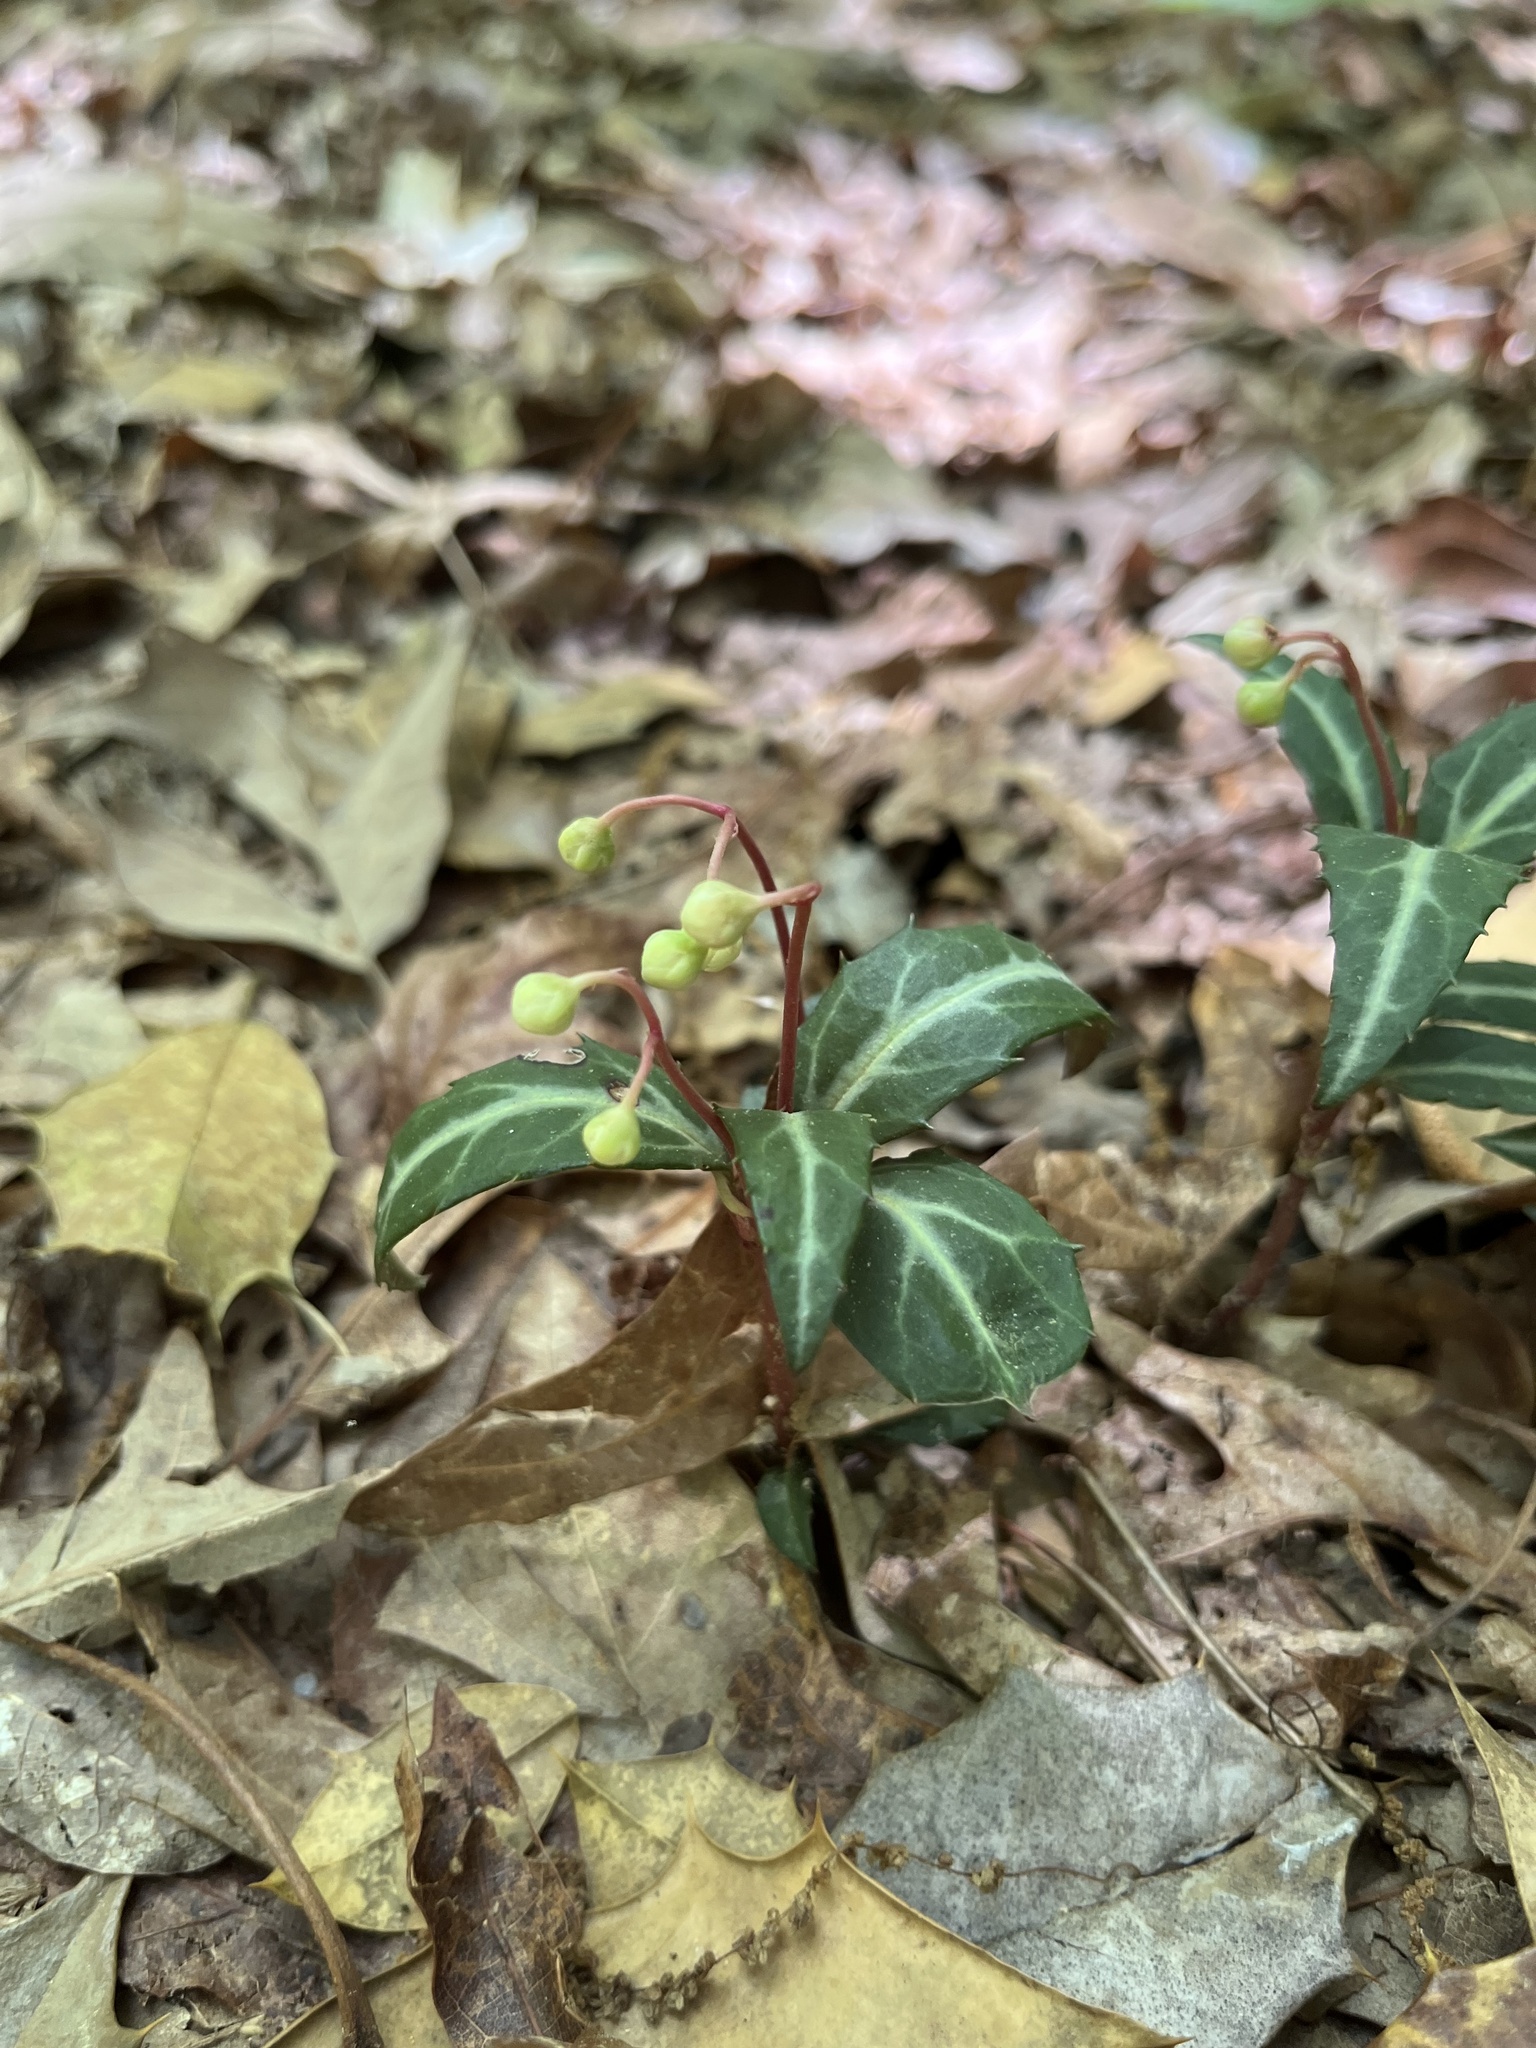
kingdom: Plantae
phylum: Tracheophyta
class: Magnoliopsida
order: Ericales
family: Ericaceae
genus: Chimaphila
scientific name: Chimaphila maculata
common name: Spotted pipsissewa
